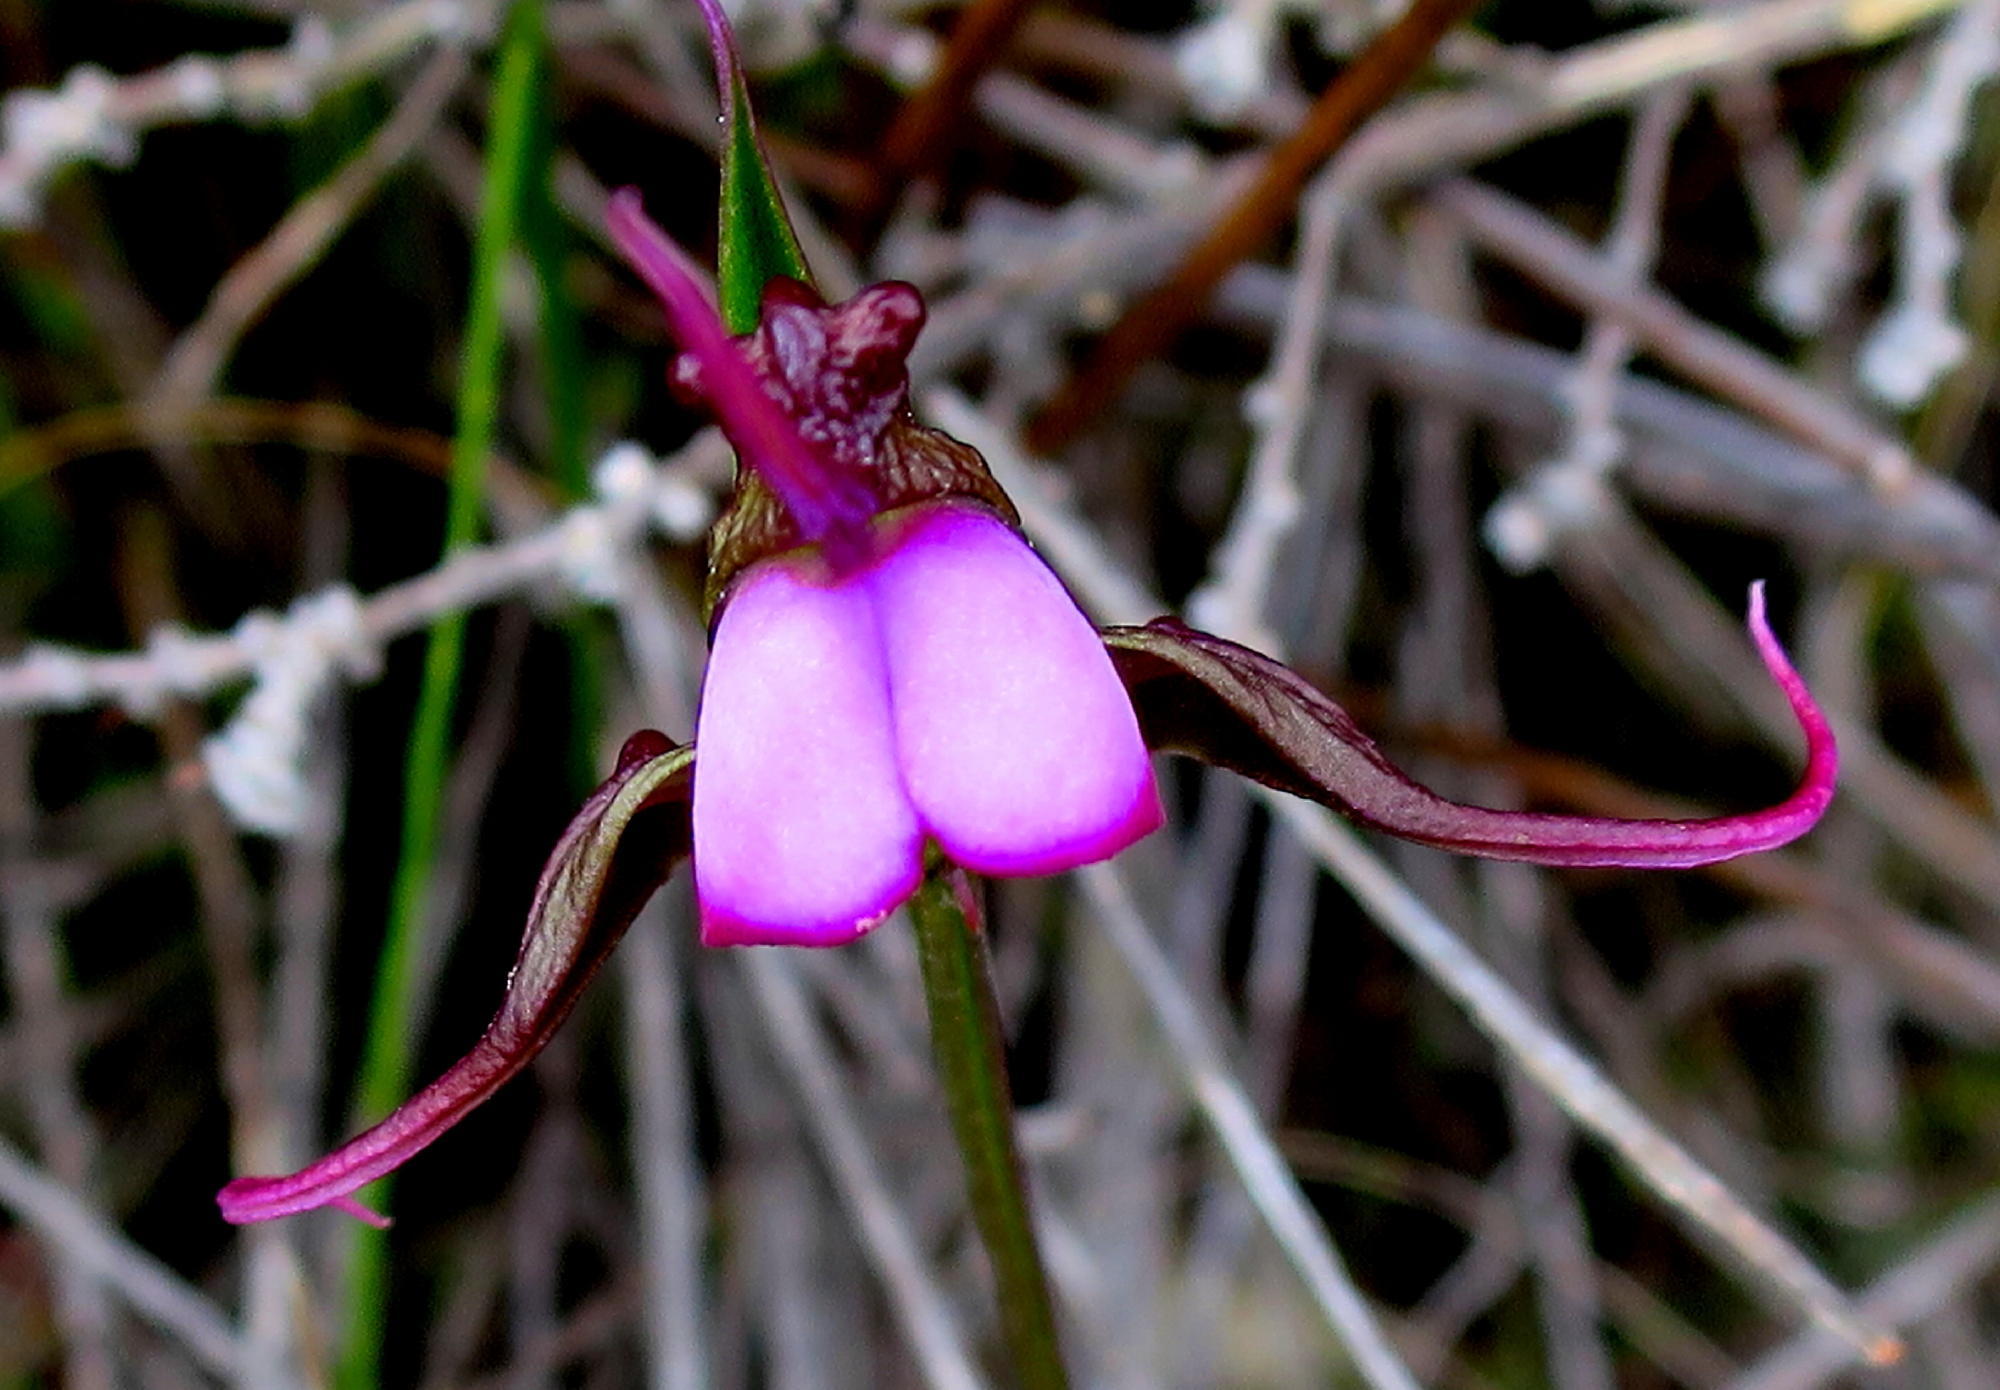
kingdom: Plantae
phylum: Tracheophyta
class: Liliopsida
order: Asparagales
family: Orchidaceae
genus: Disperis
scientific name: Disperis capensis
